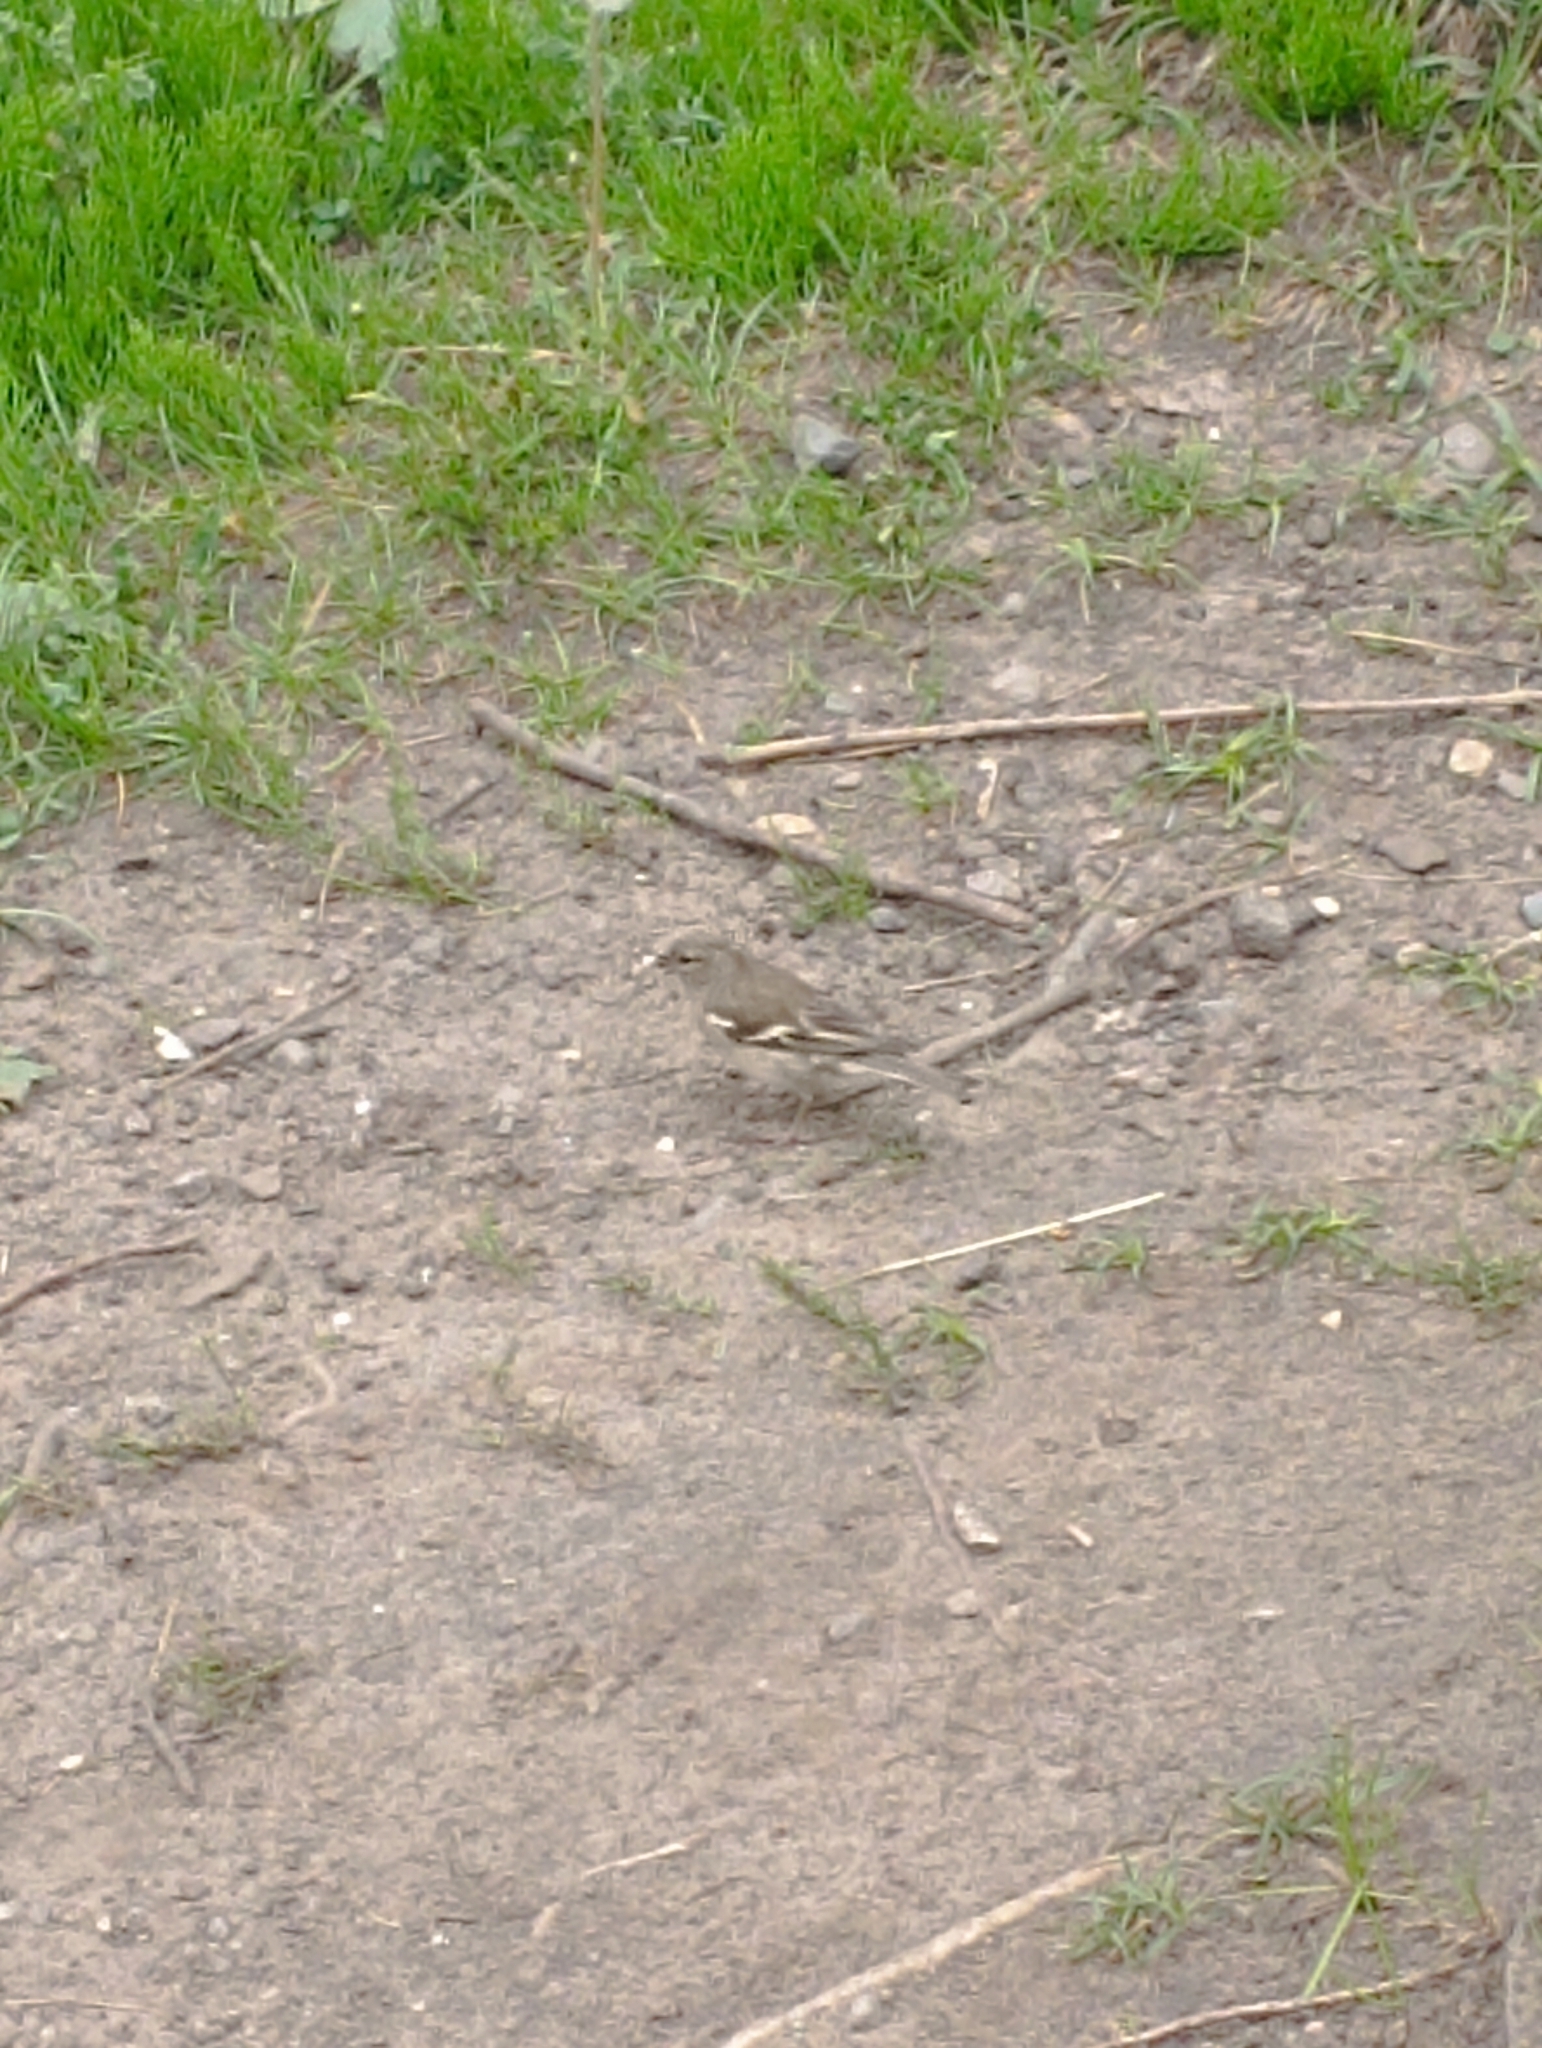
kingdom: Animalia
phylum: Chordata
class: Aves
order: Passeriformes
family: Fringillidae
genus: Fringilla
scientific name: Fringilla coelebs
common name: Common chaffinch
